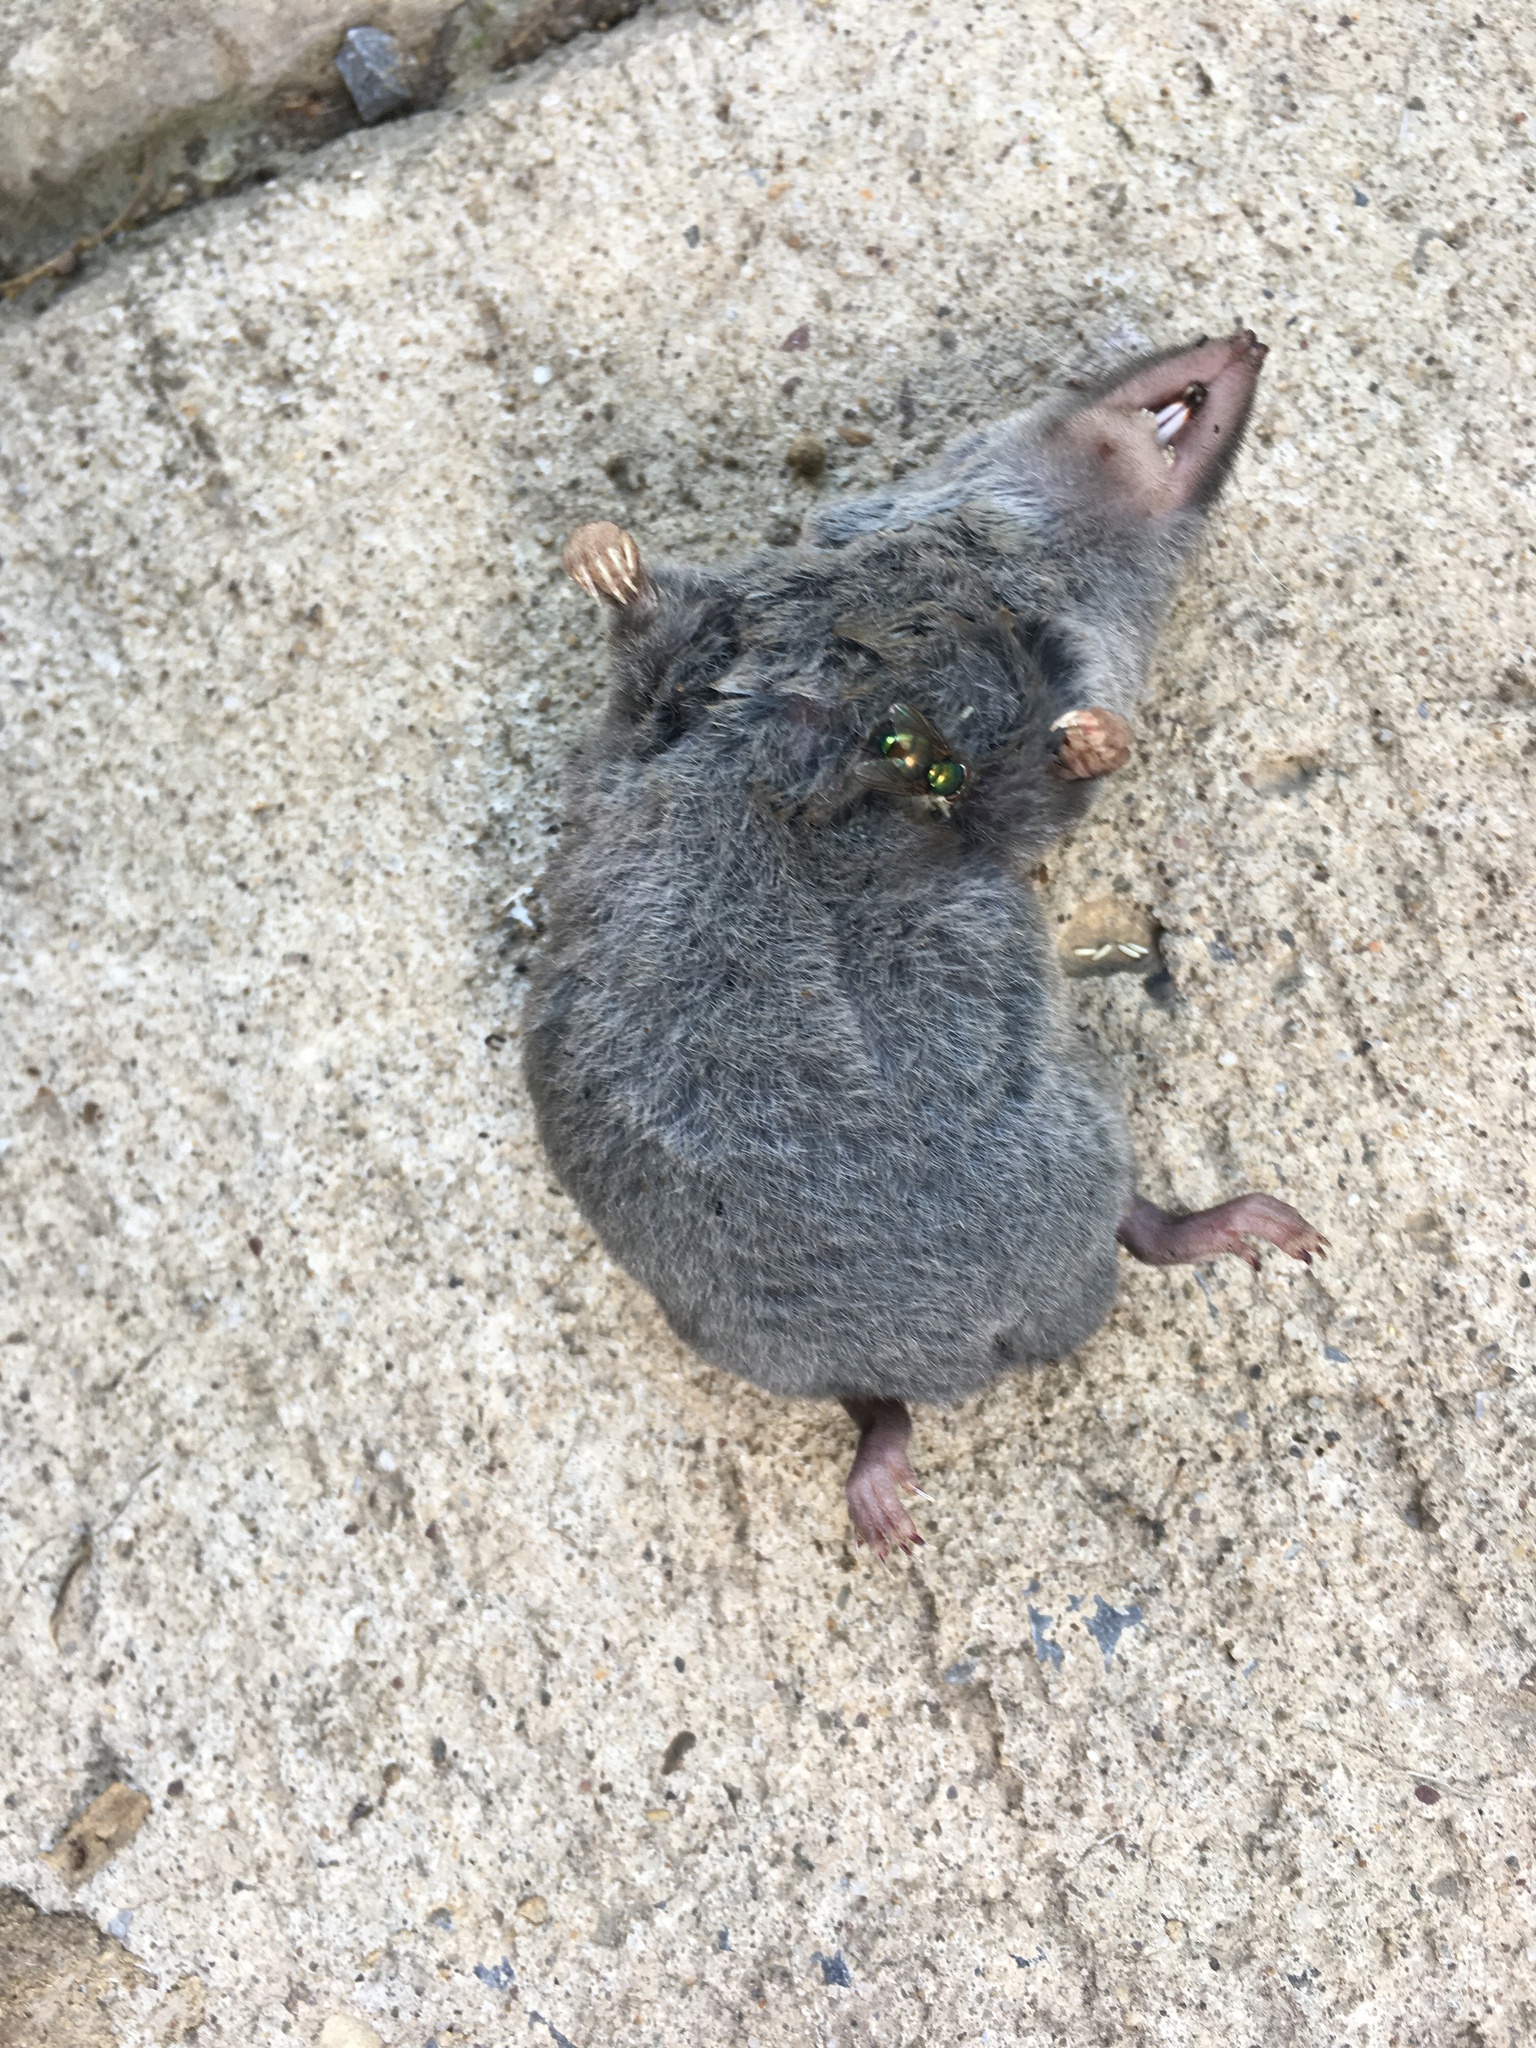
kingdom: Animalia
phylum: Chordata
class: Mammalia
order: Soricomorpha
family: Soricidae
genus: Blarina
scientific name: Blarina brevicauda
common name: Northern short-tailed shrew
